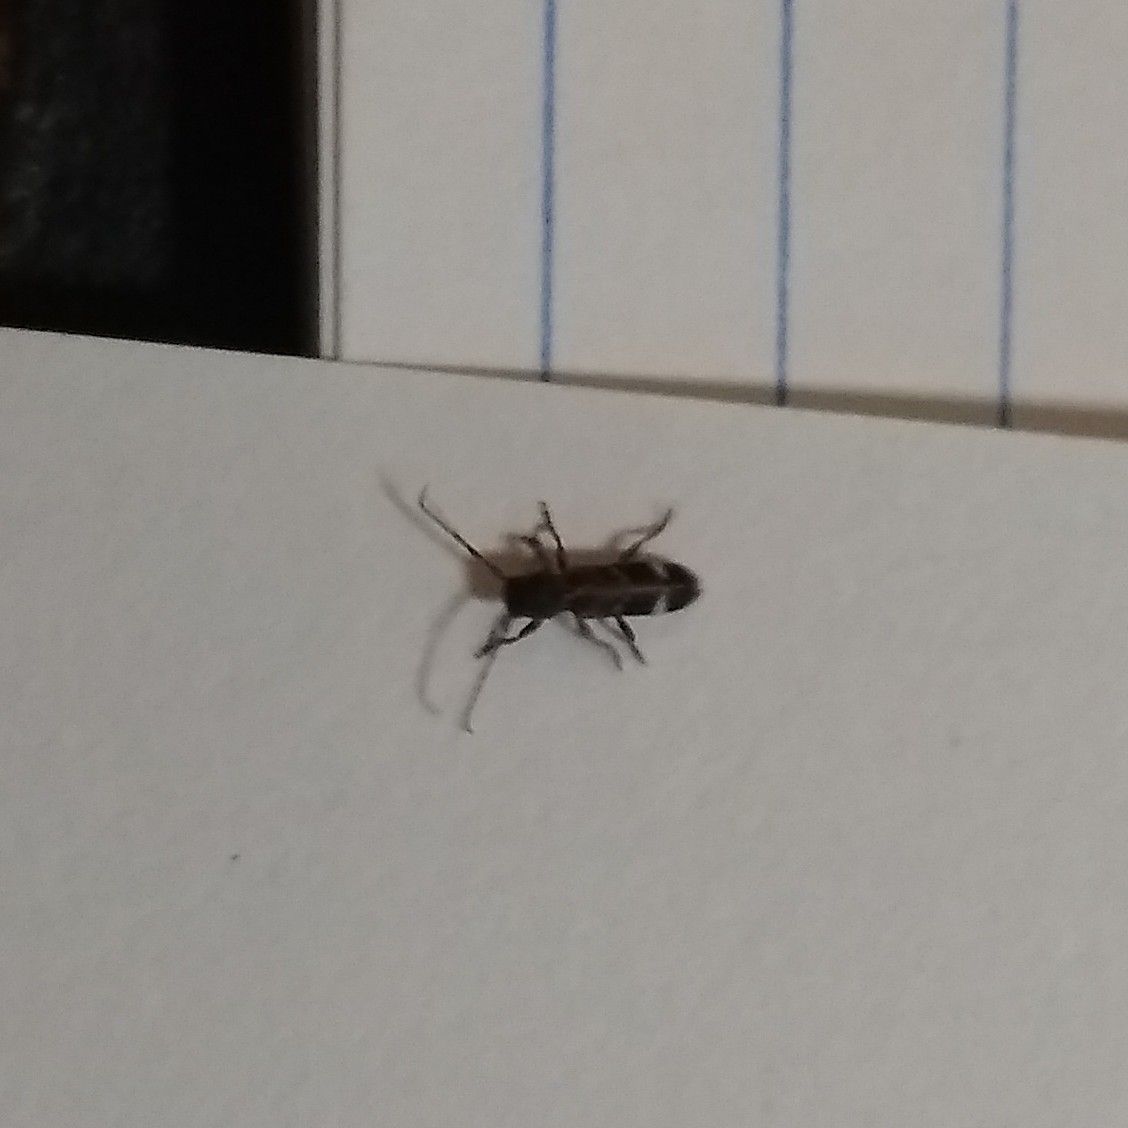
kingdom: Animalia
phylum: Arthropoda
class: Insecta
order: Coleoptera
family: Cerambycidae
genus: Psenocerus
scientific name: Psenocerus supernotatus
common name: Currant-tip borer
